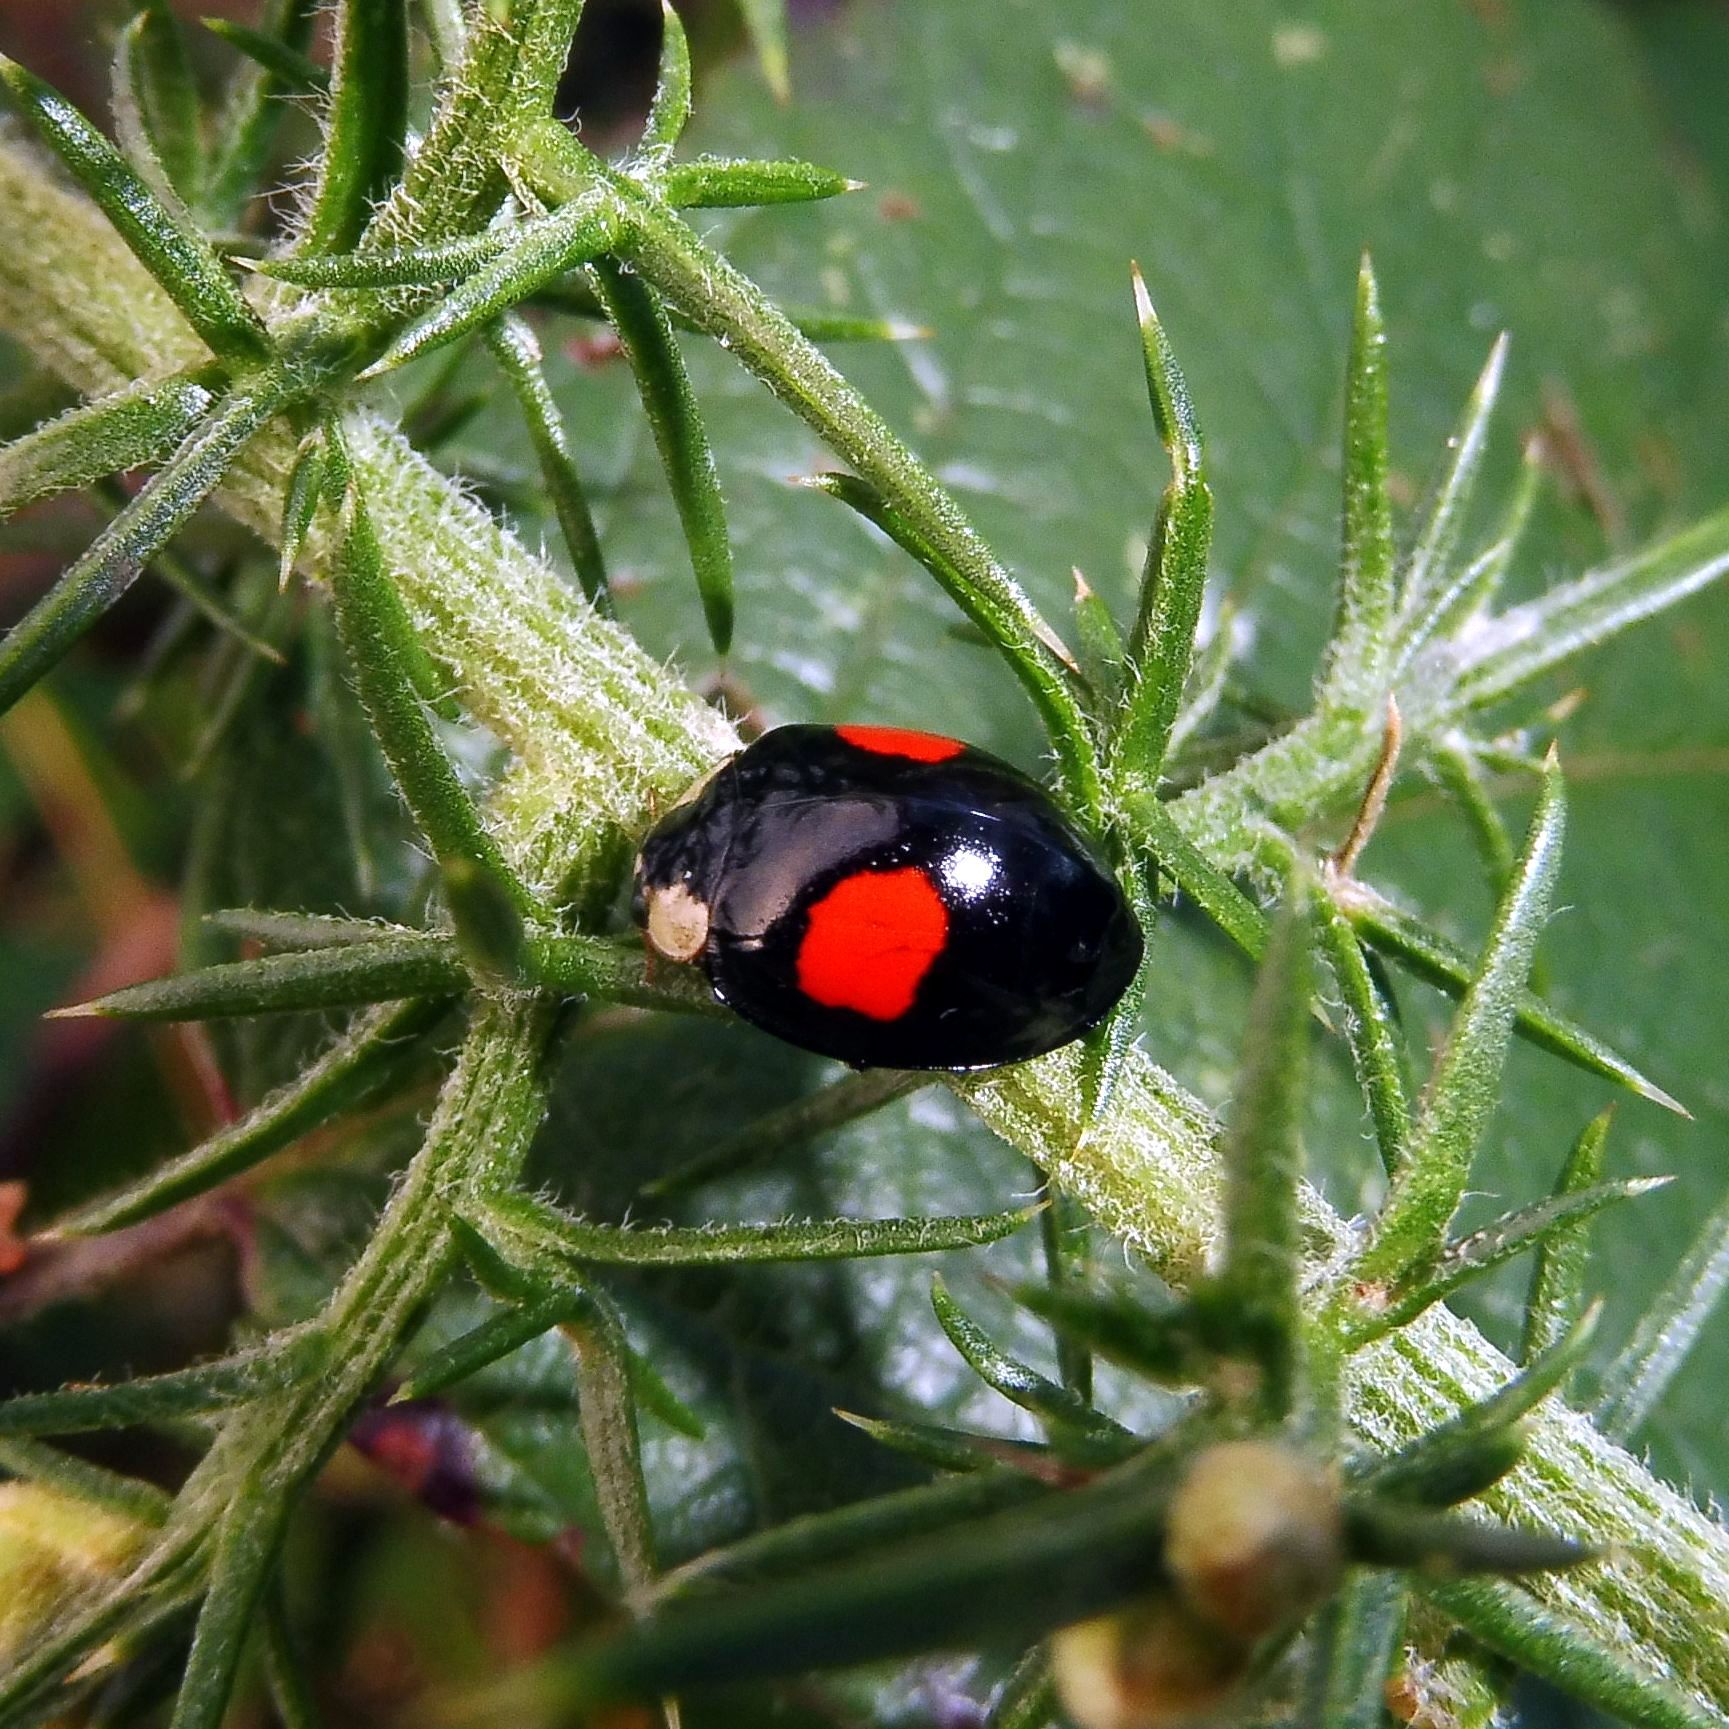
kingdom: Animalia
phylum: Arthropoda
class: Insecta
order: Coleoptera
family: Coccinellidae
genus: Harmonia
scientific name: Harmonia axyridis
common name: Harlequin ladybird
